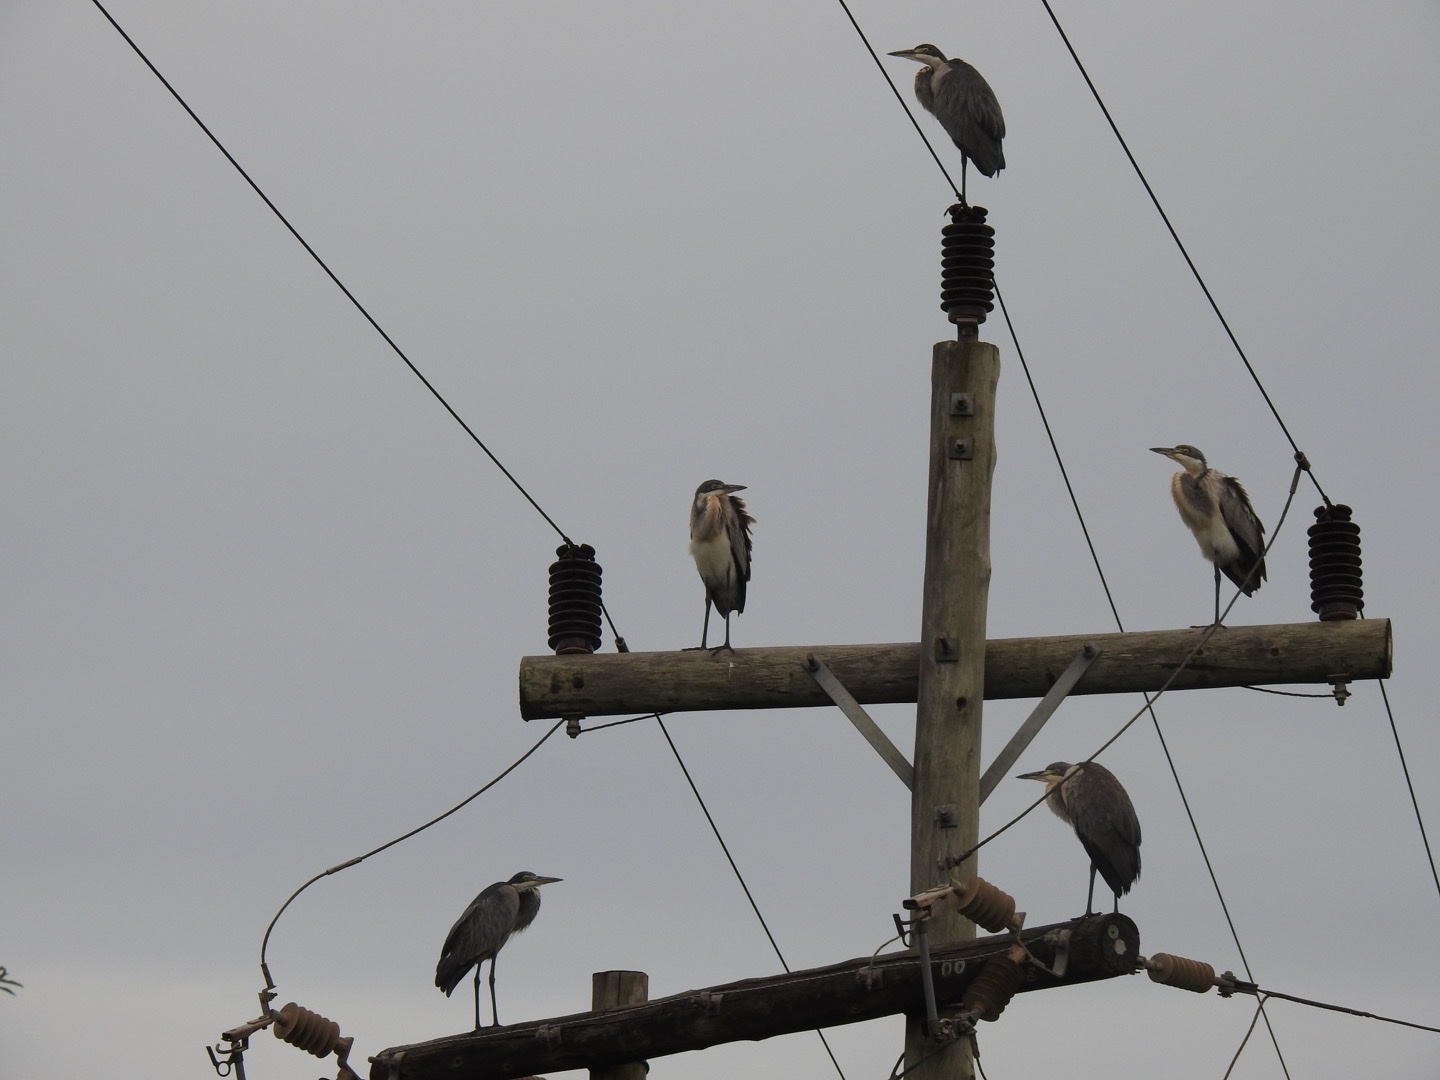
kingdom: Animalia
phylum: Chordata
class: Aves
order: Pelecaniformes
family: Ardeidae
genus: Ardea
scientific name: Ardea melanocephala
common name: Black-headed heron
